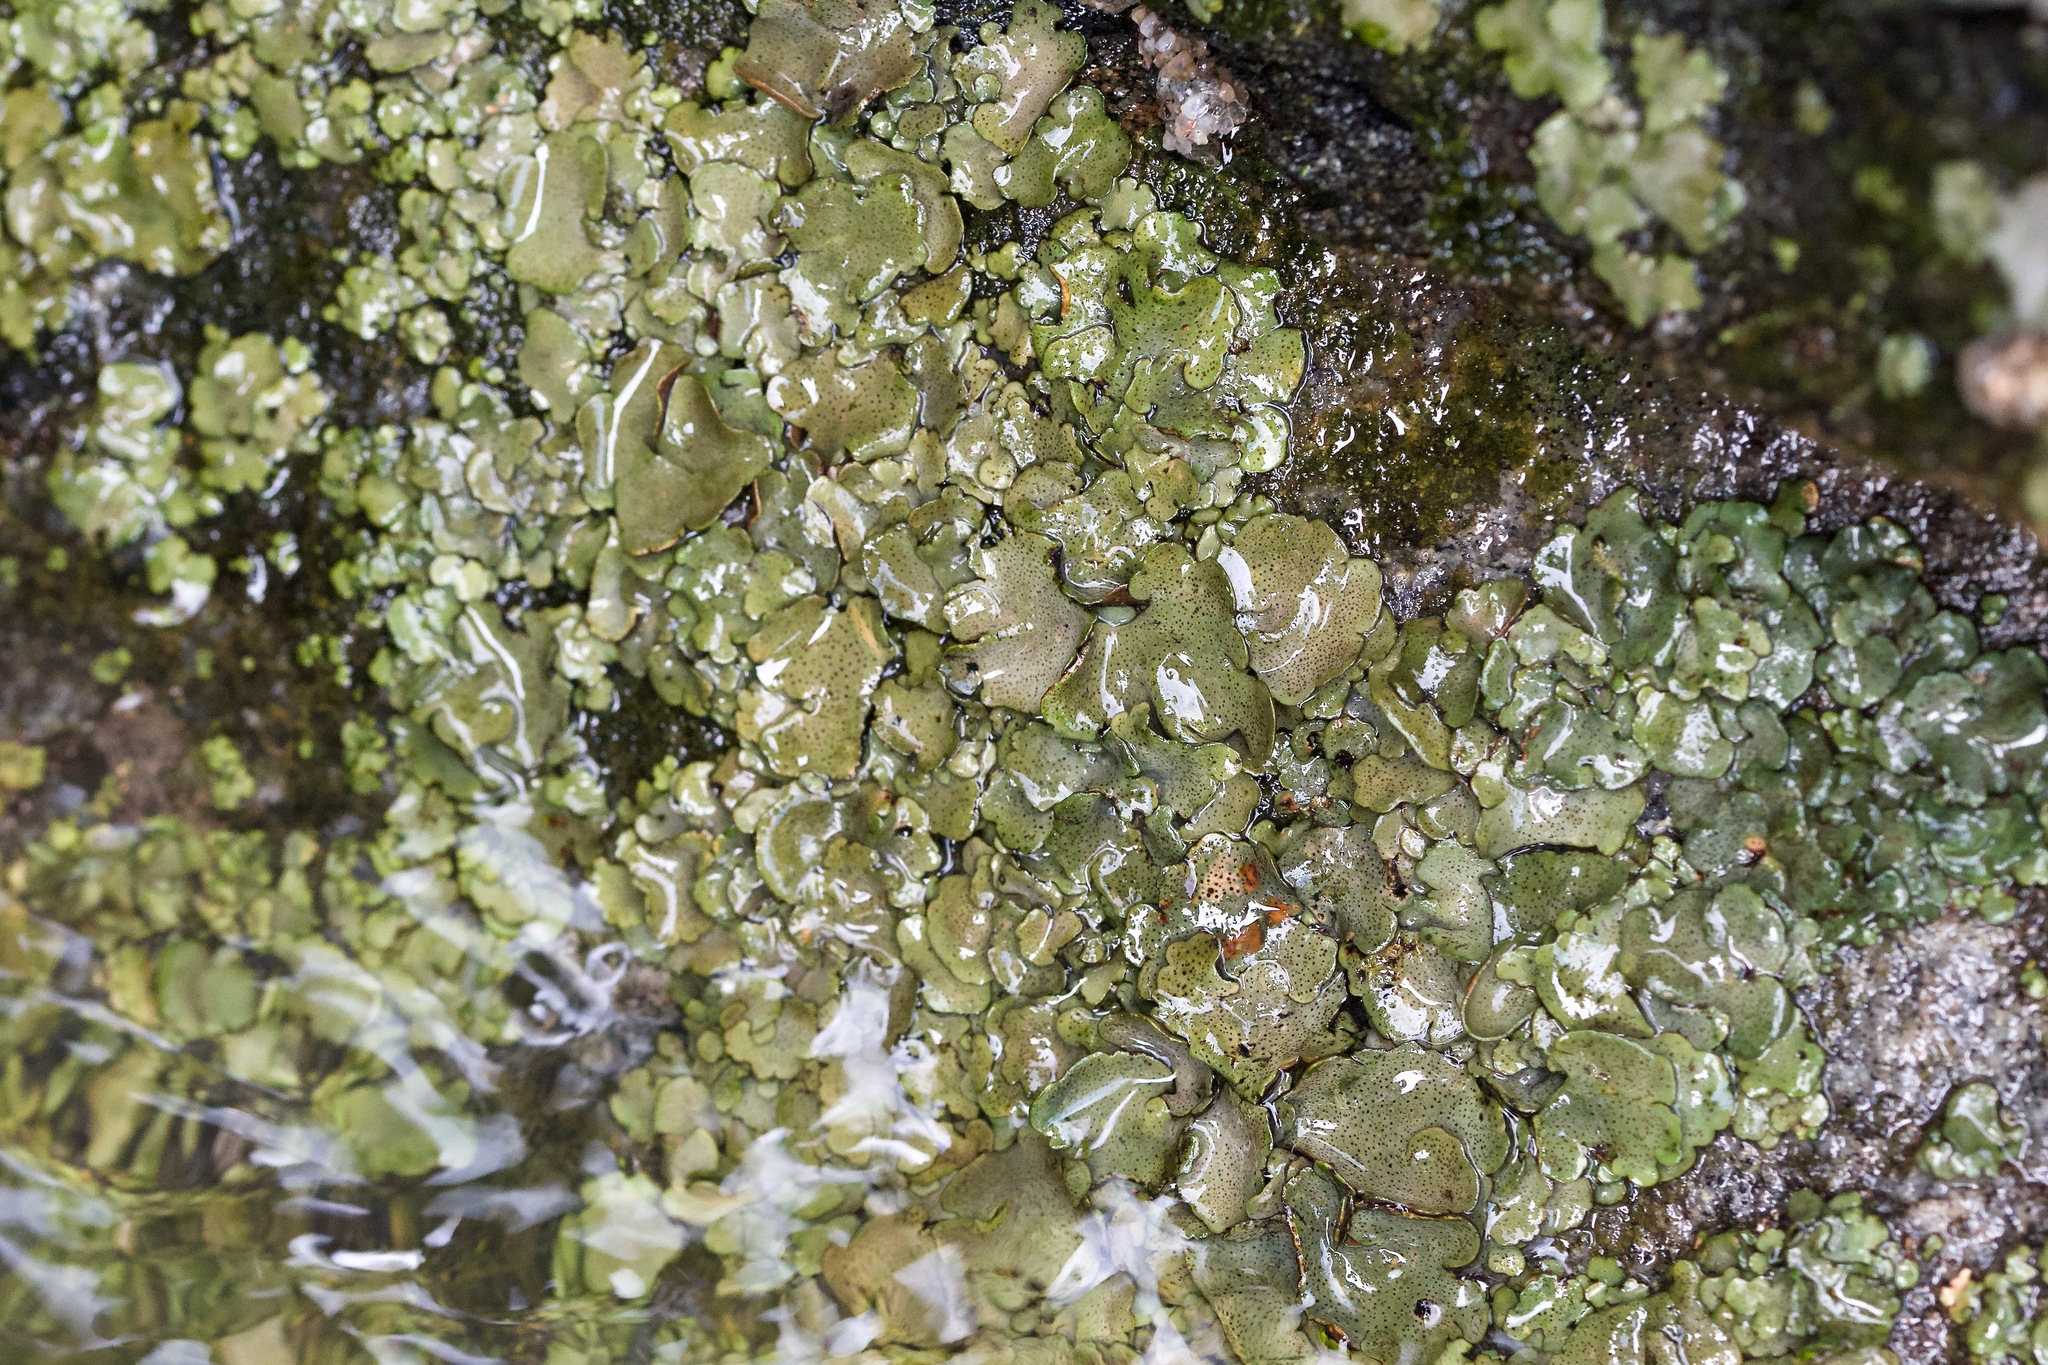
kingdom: Fungi
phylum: Ascomycota
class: Eurotiomycetes
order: Verrucariales
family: Verrucariaceae
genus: Dermatocarpon
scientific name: Dermatocarpon luridum
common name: Brook stippleback lichen
